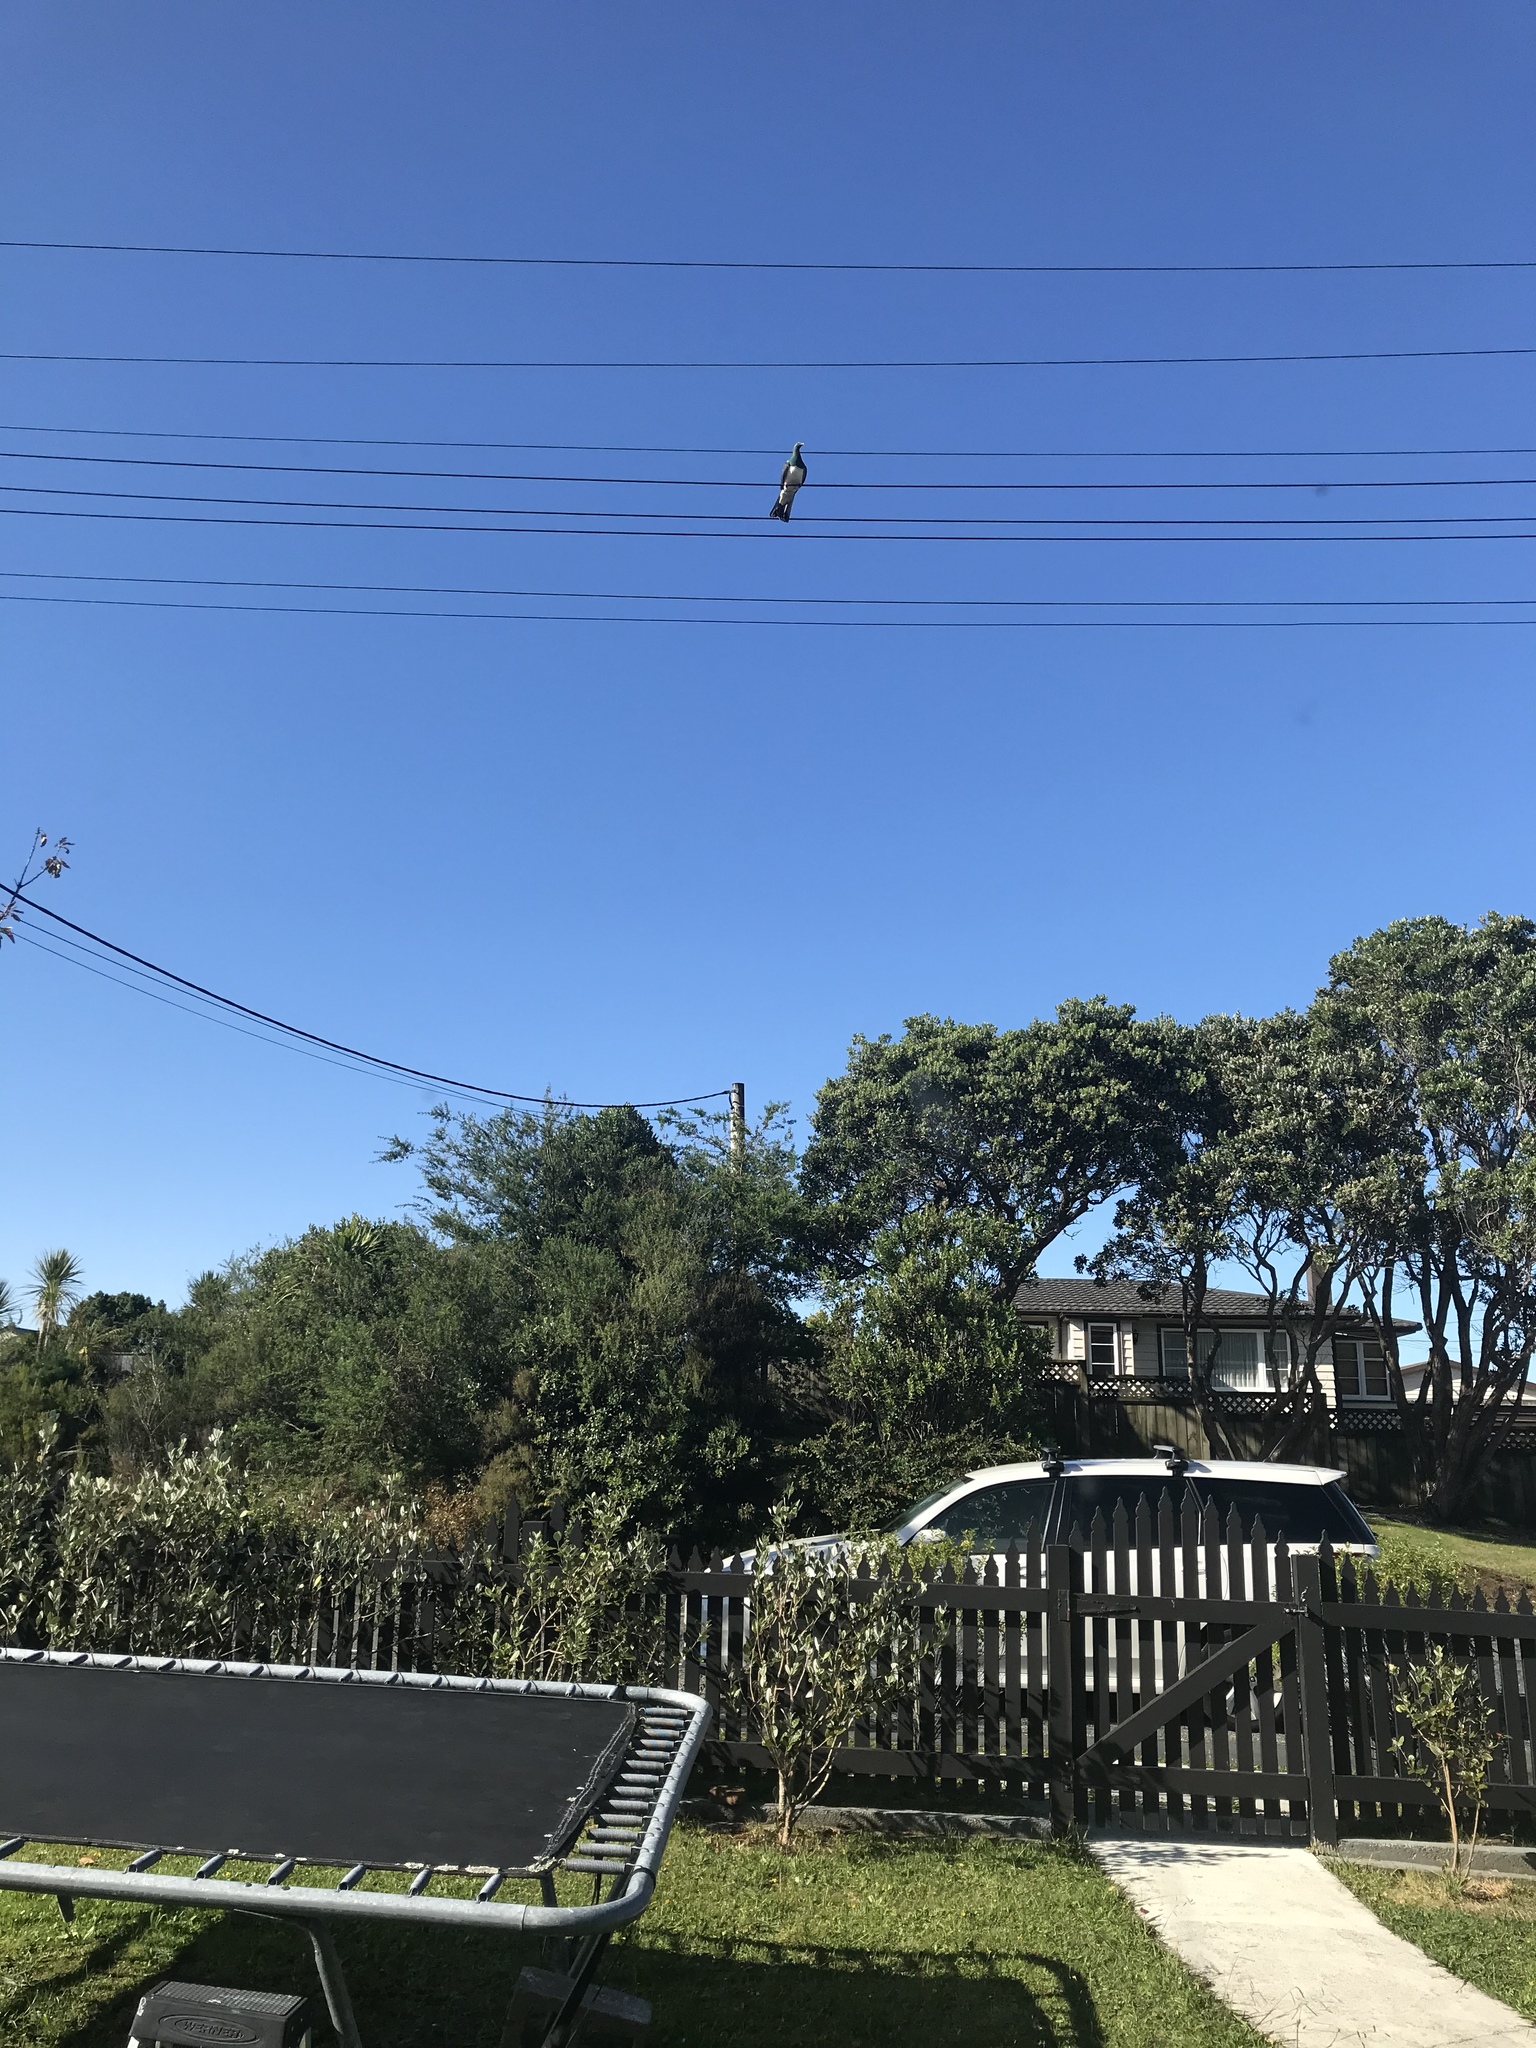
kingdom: Animalia
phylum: Chordata
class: Aves
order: Columbiformes
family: Columbidae
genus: Hemiphaga
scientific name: Hemiphaga novaeseelandiae
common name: New zealand pigeon
